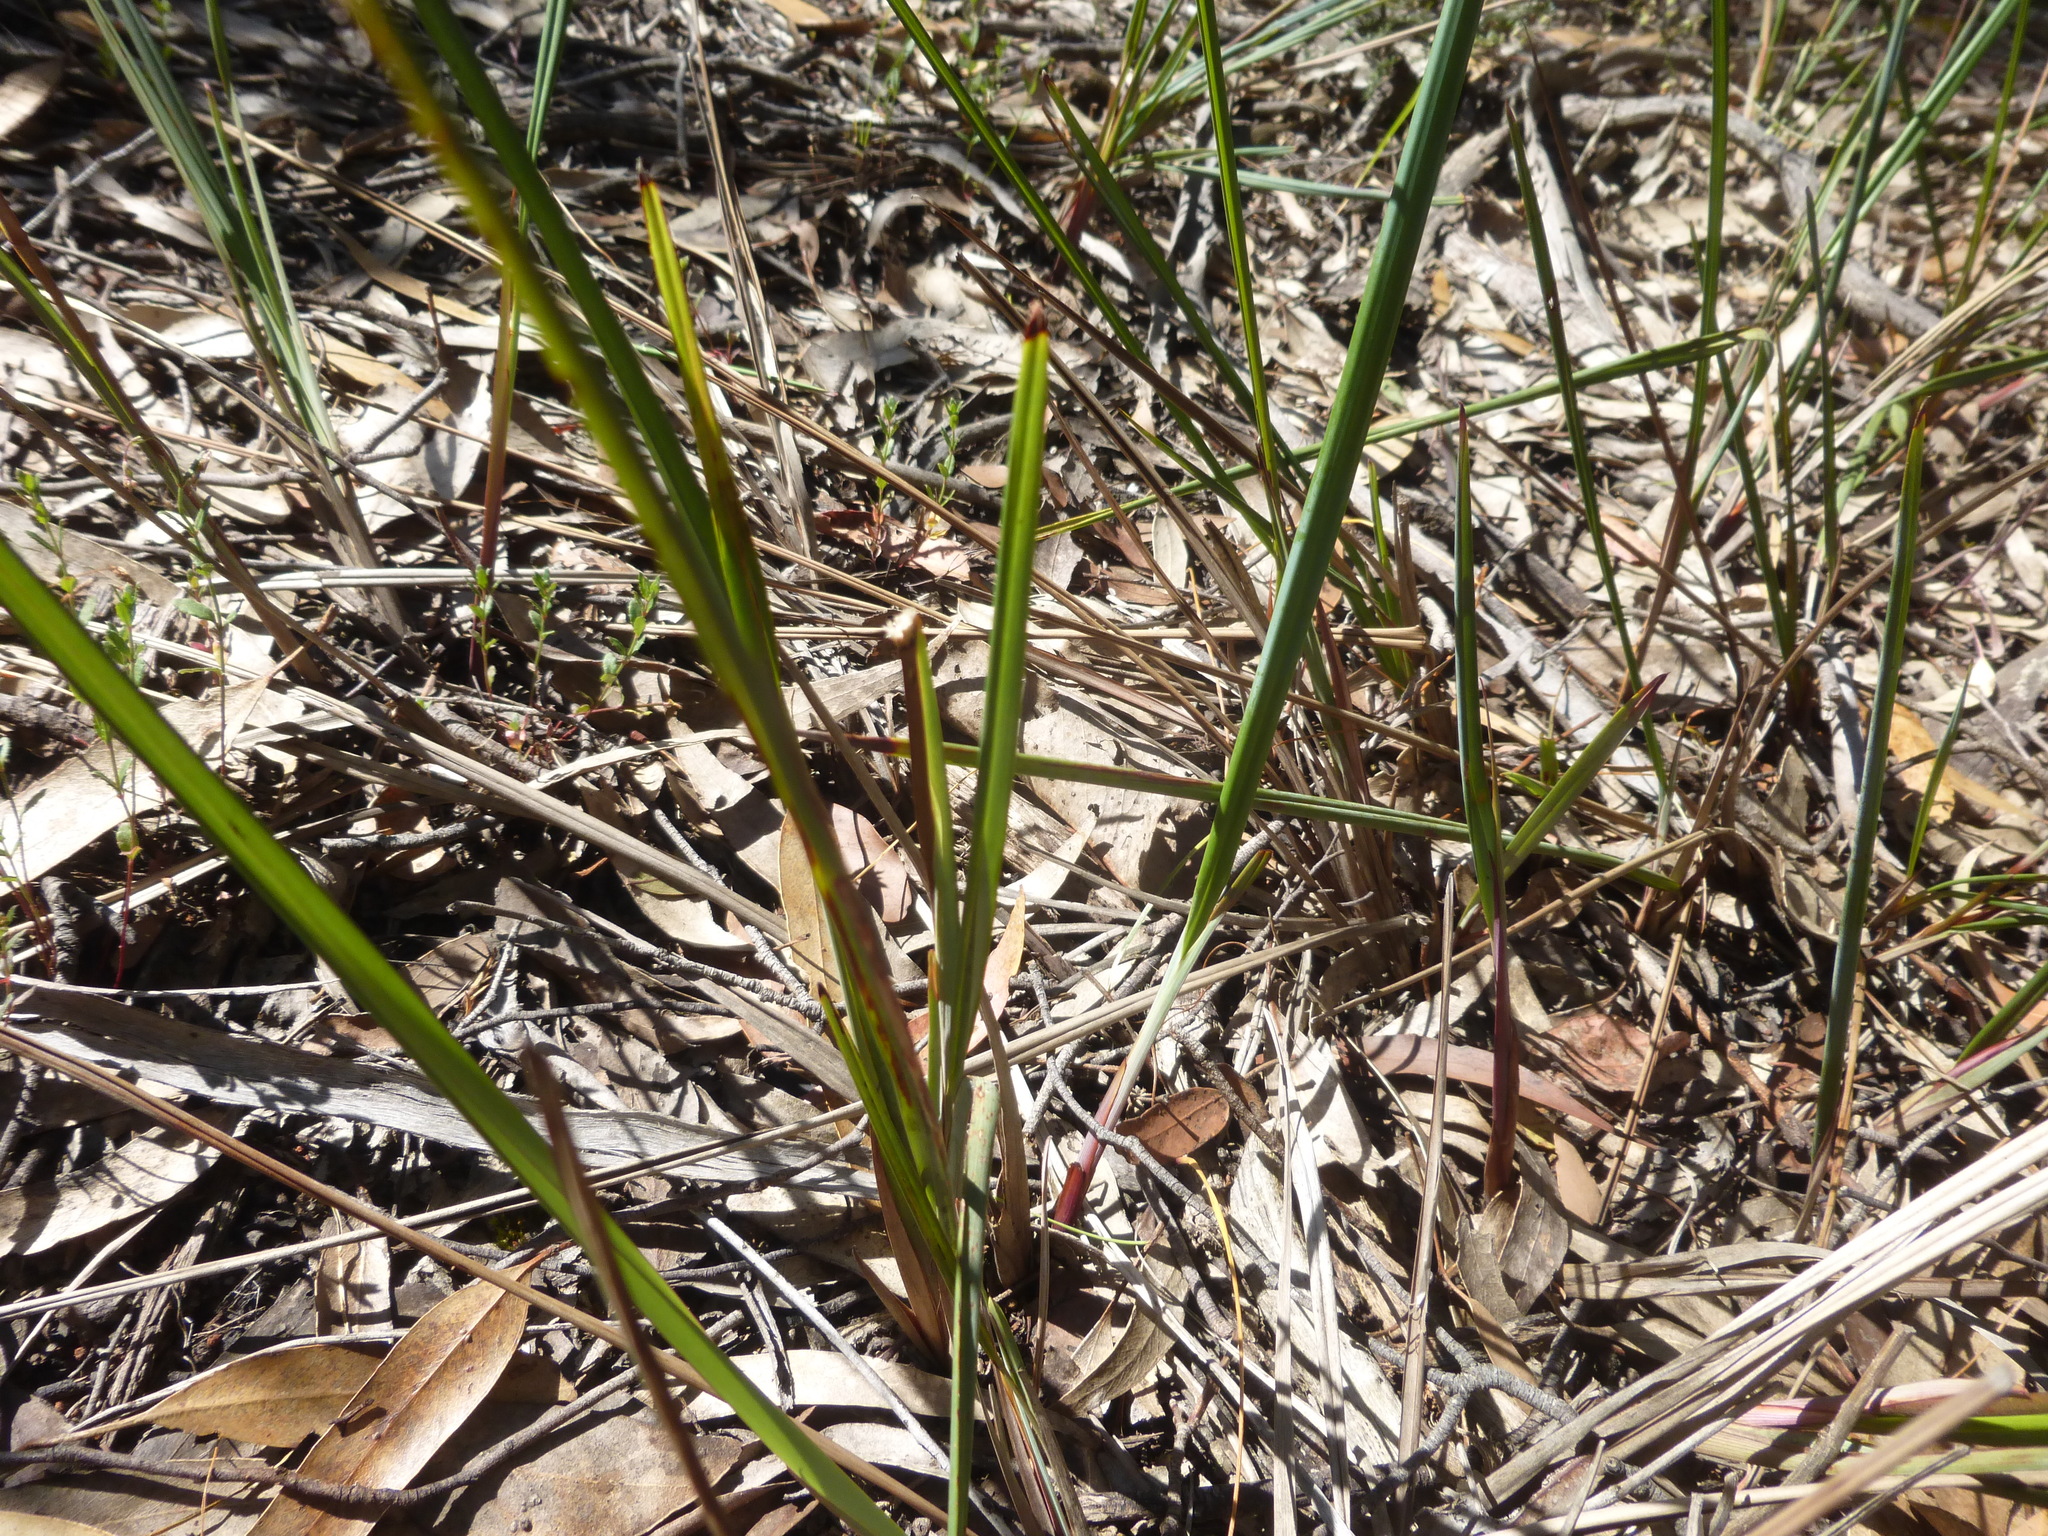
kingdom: Plantae
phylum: Tracheophyta
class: Liliopsida
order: Asparagales
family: Asphodelaceae
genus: Dianella
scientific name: Dianella revoluta
